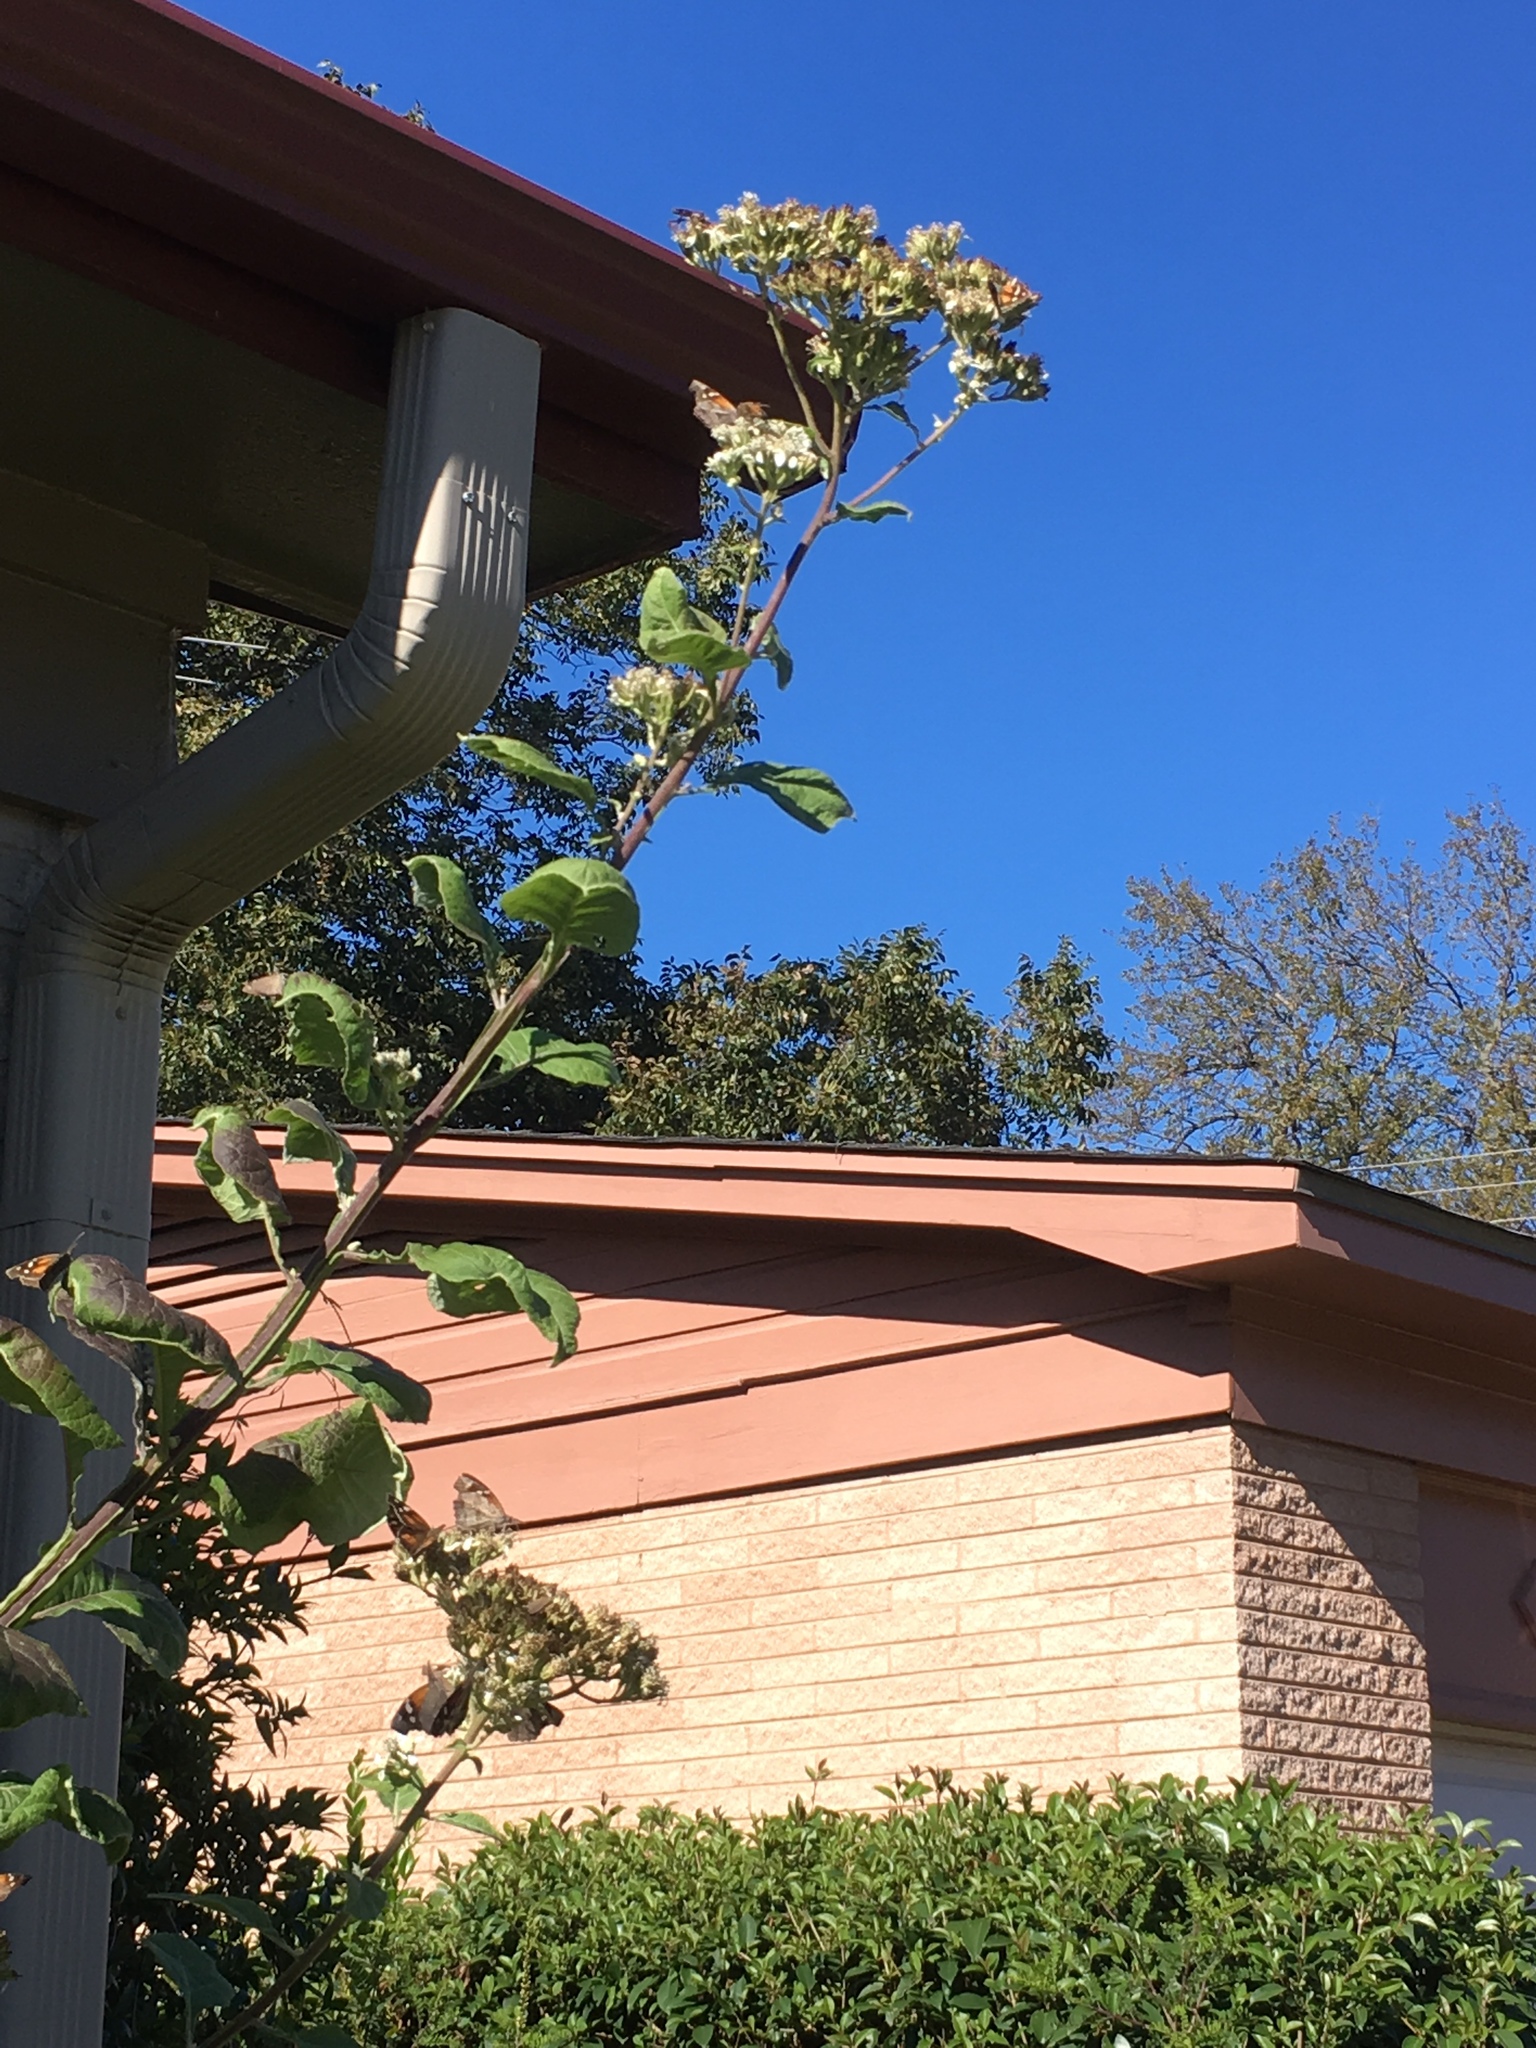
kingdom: Animalia
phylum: Arthropoda
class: Insecta
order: Lepidoptera
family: Nymphalidae
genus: Libytheana
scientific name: Libytheana carinenta
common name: American snout
